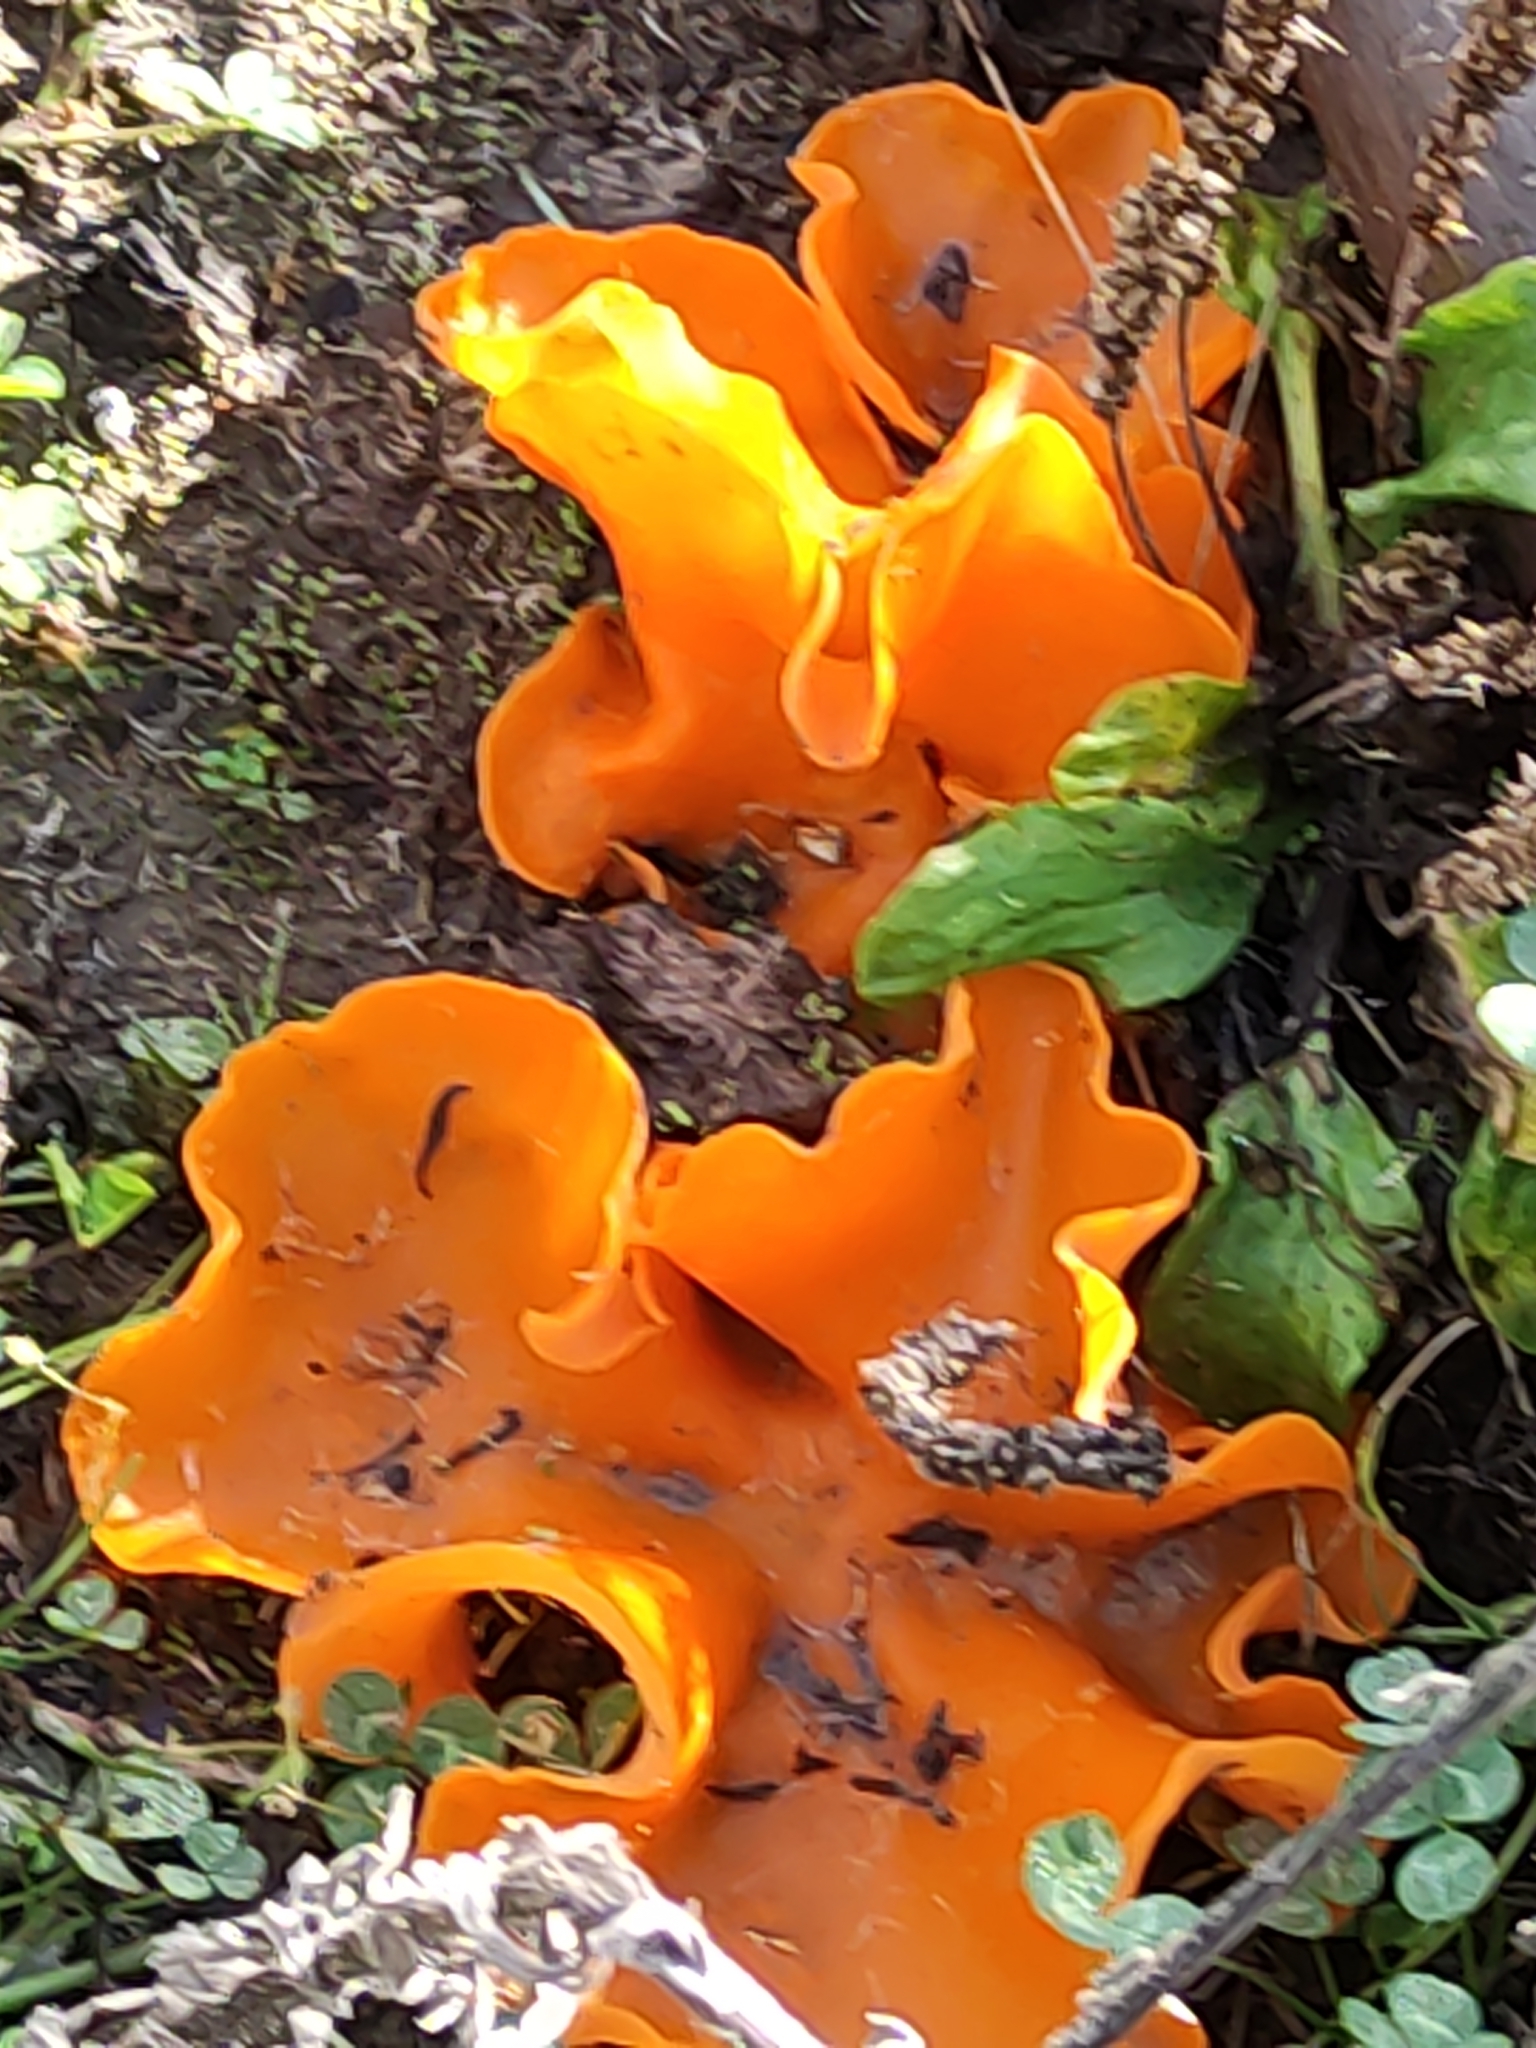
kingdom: Fungi
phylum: Ascomycota
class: Pezizomycetes
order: Pezizales
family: Pyronemataceae
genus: Aleuria
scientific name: Aleuria aurantia
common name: Orange peel fungus
